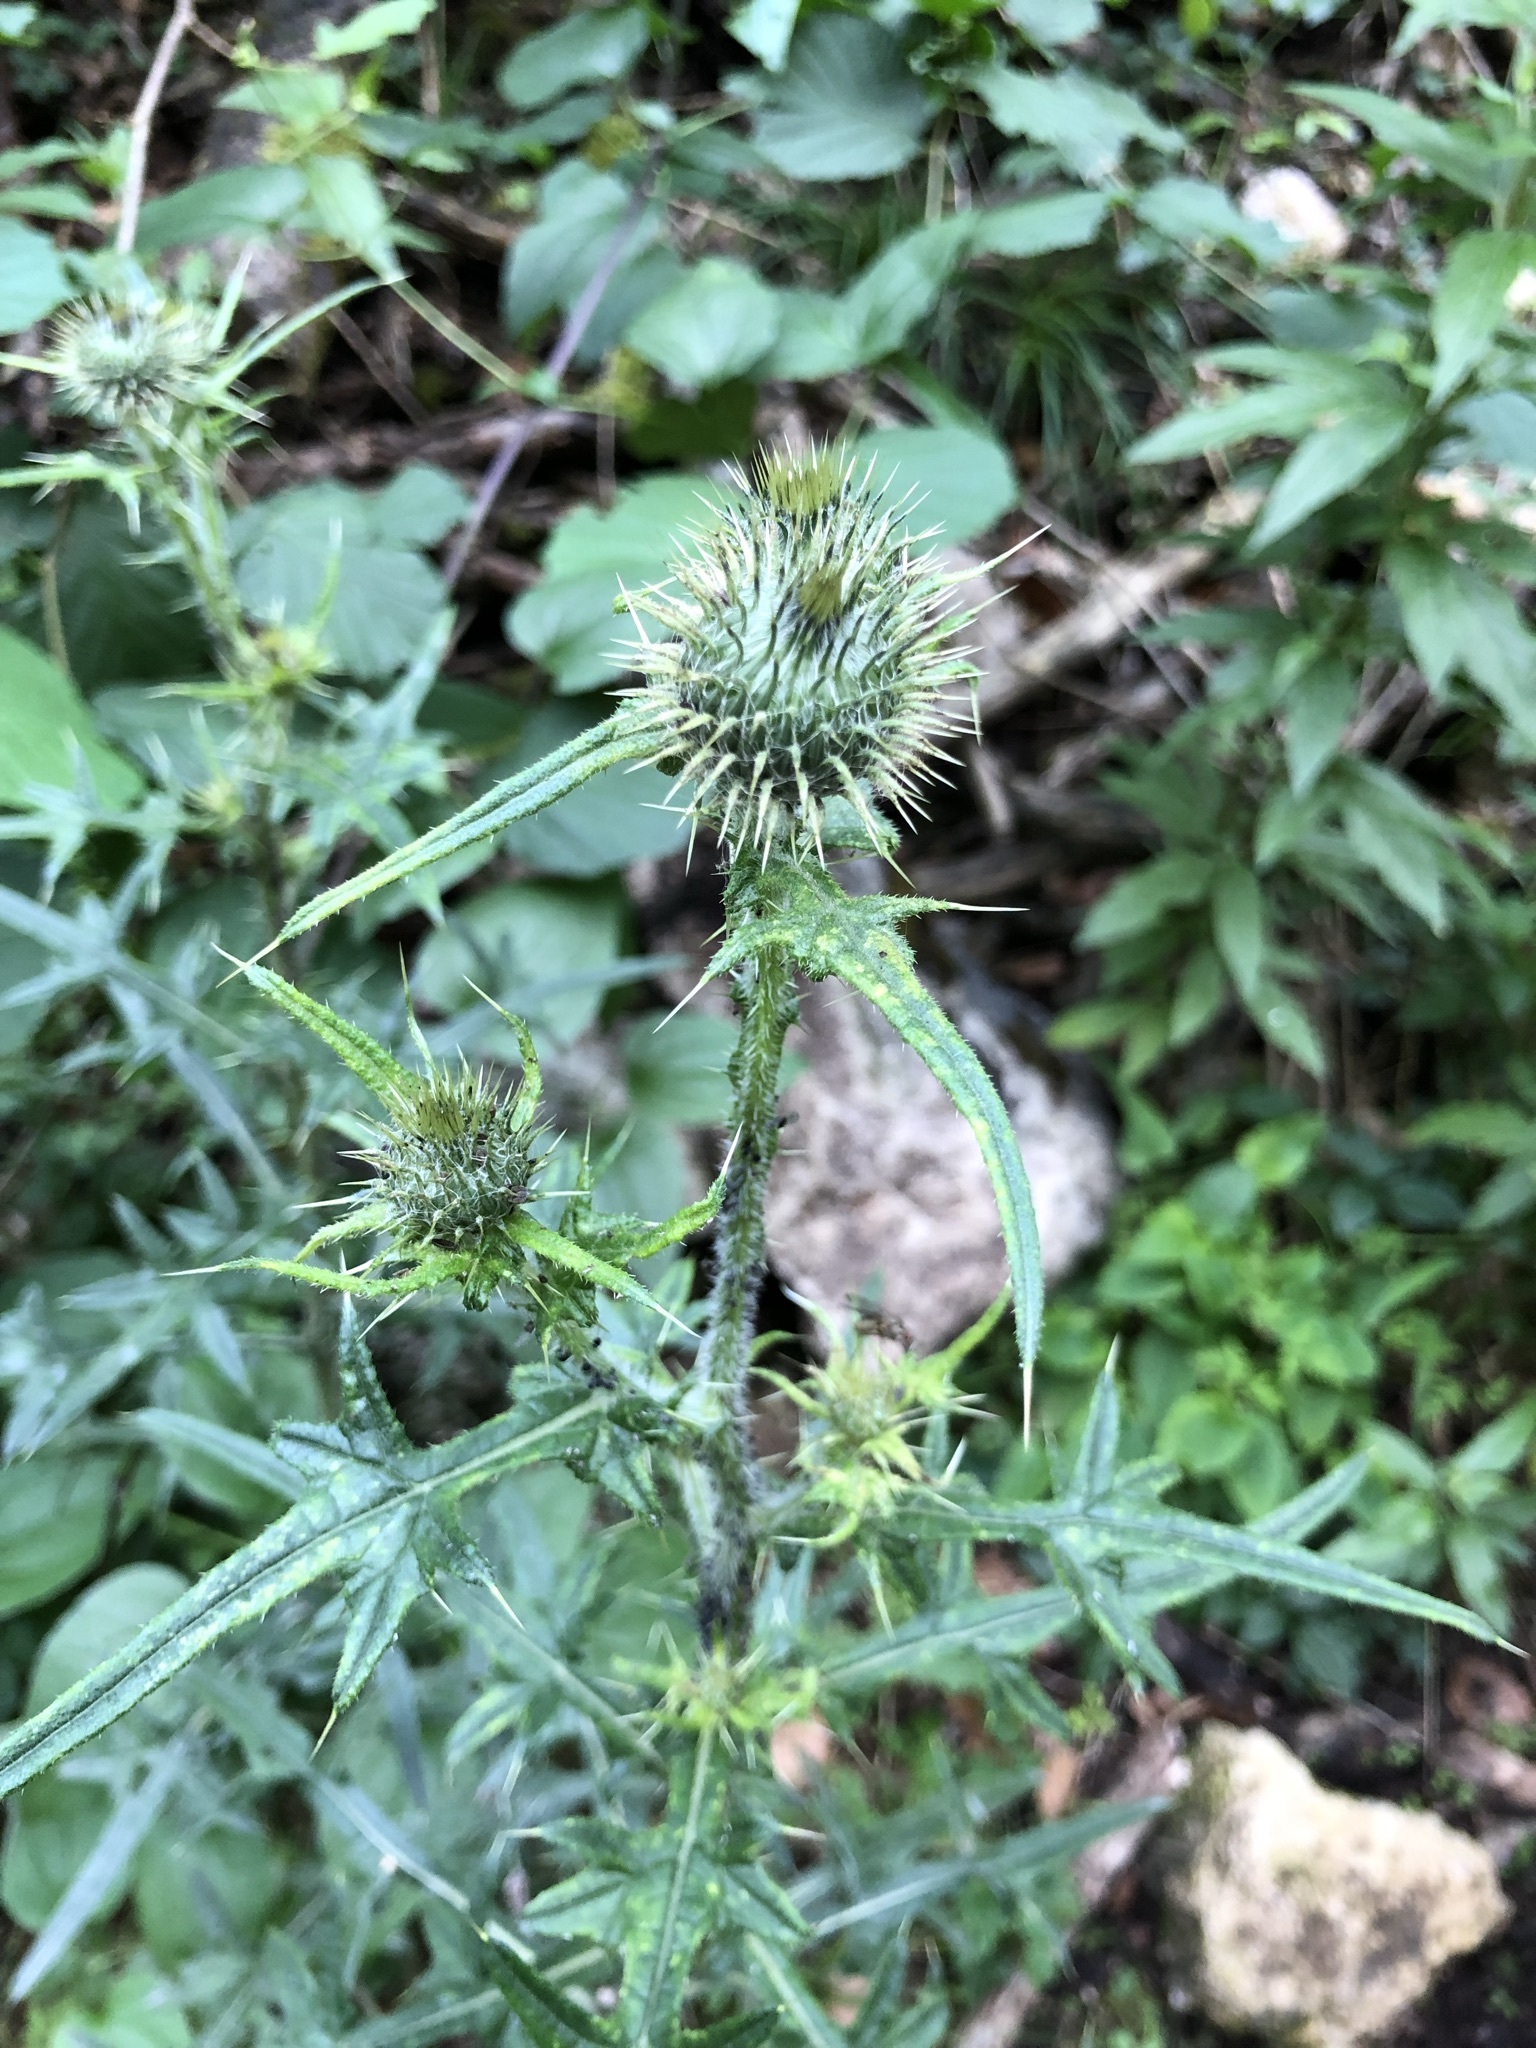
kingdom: Plantae
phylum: Tracheophyta
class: Magnoliopsida
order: Asterales
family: Asteraceae
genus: Cirsium
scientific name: Cirsium vulgare
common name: Bull thistle
